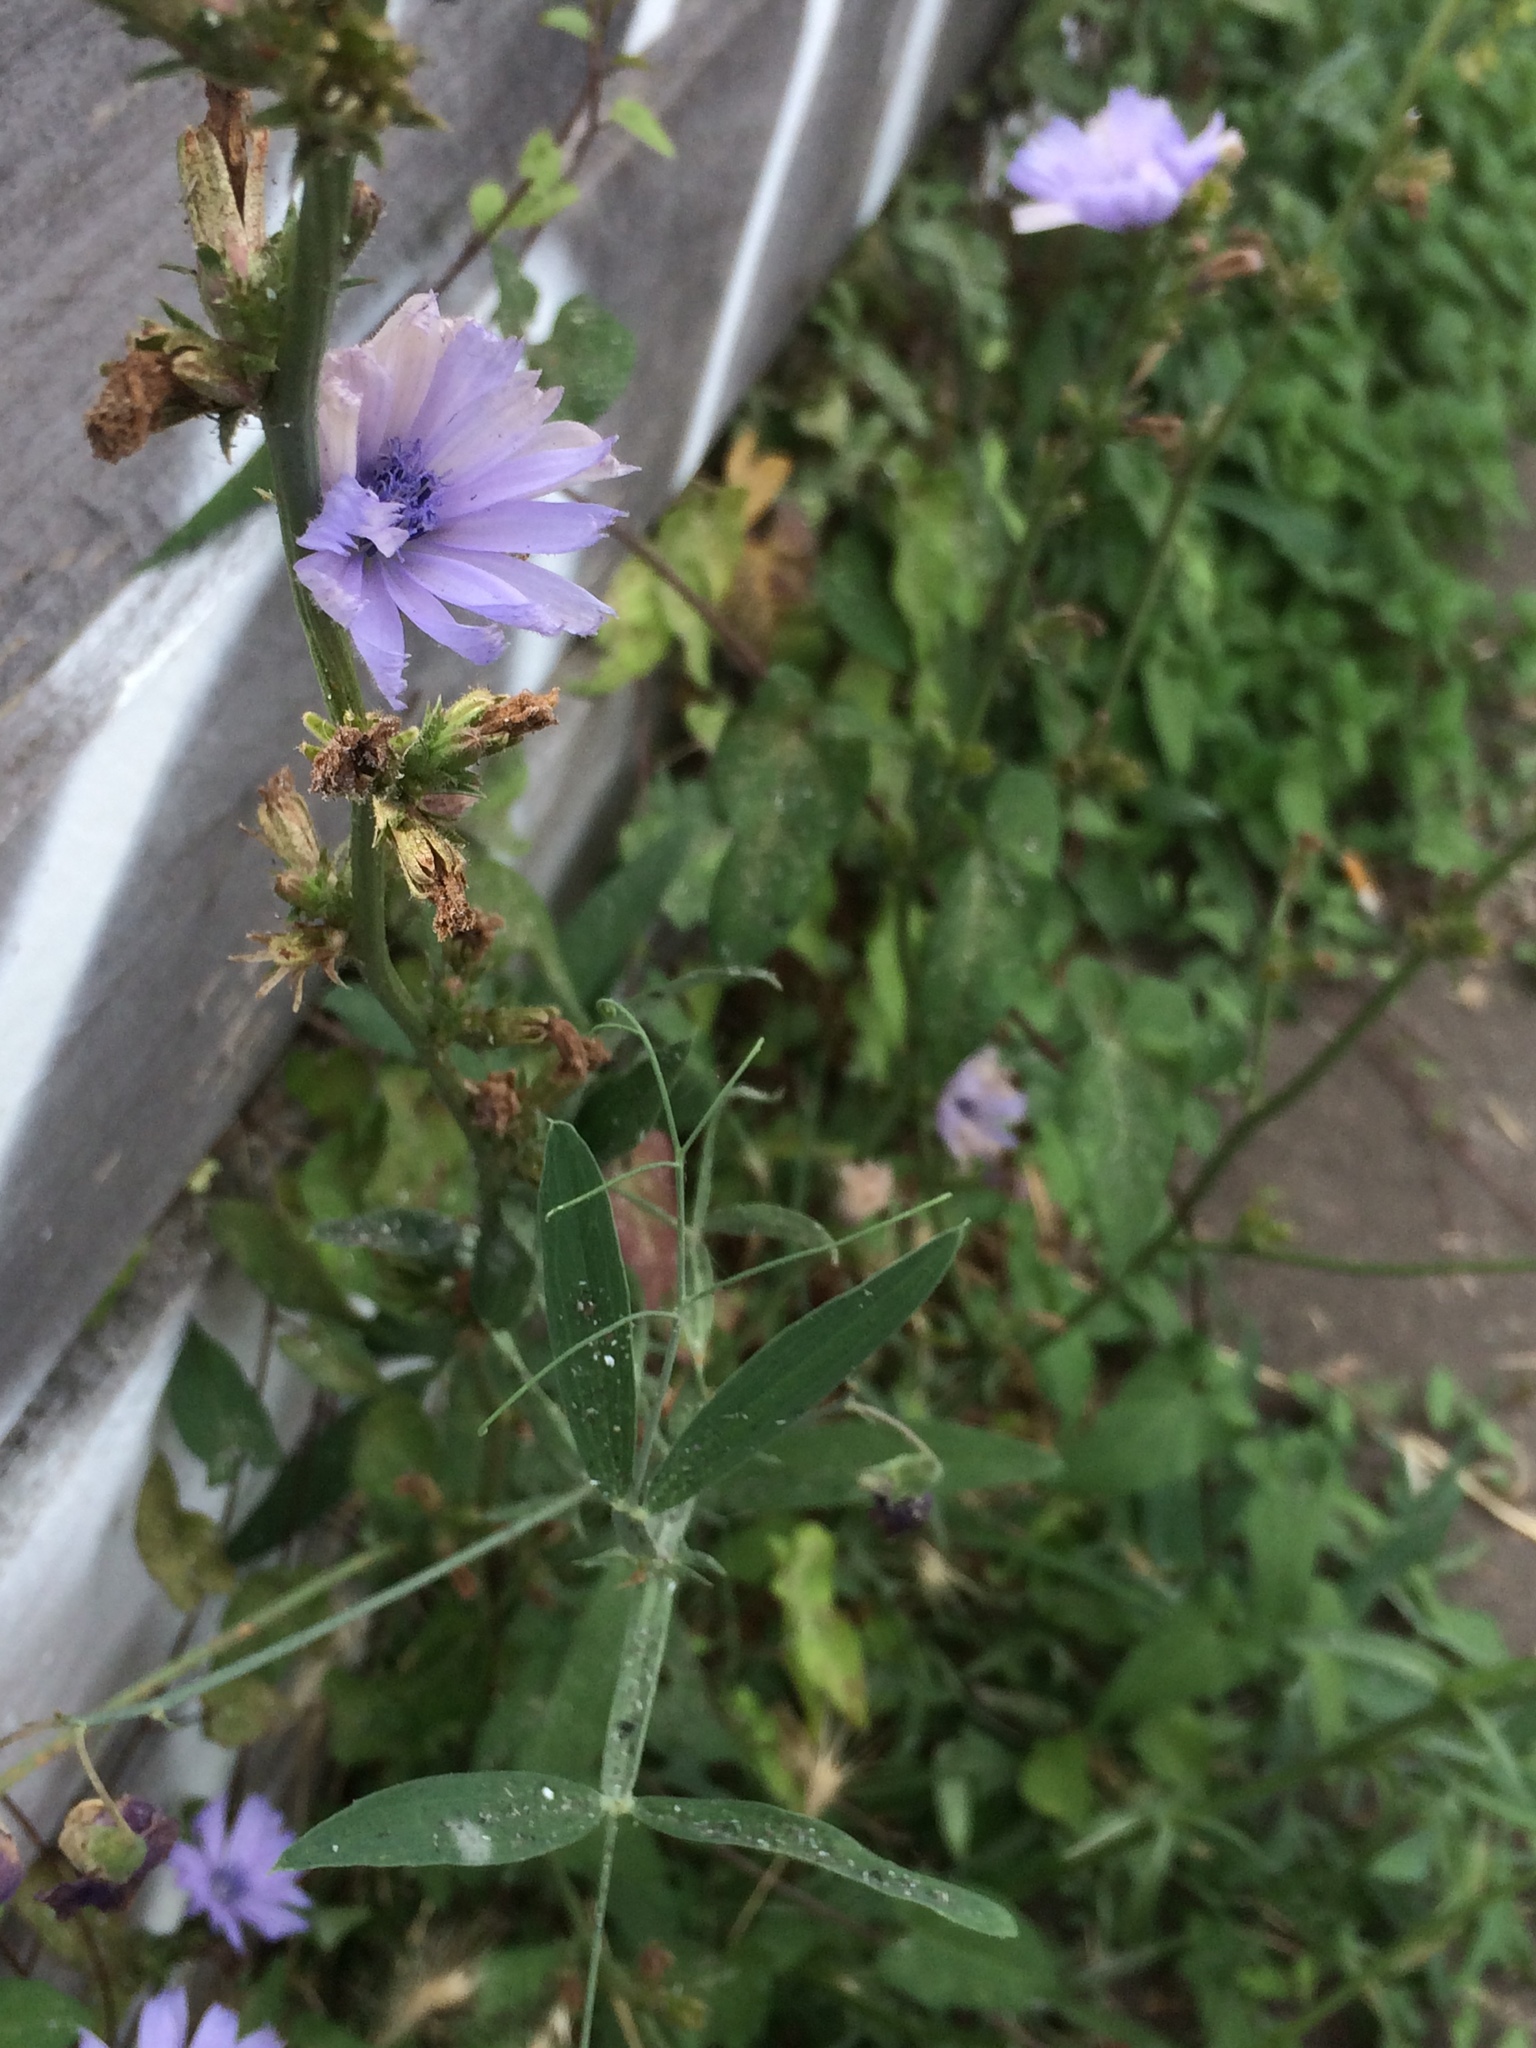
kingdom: Plantae
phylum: Tracheophyta
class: Magnoliopsida
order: Asterales
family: Asteraceae
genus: Cichorium
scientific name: Cichorium intybus
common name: Chicory
